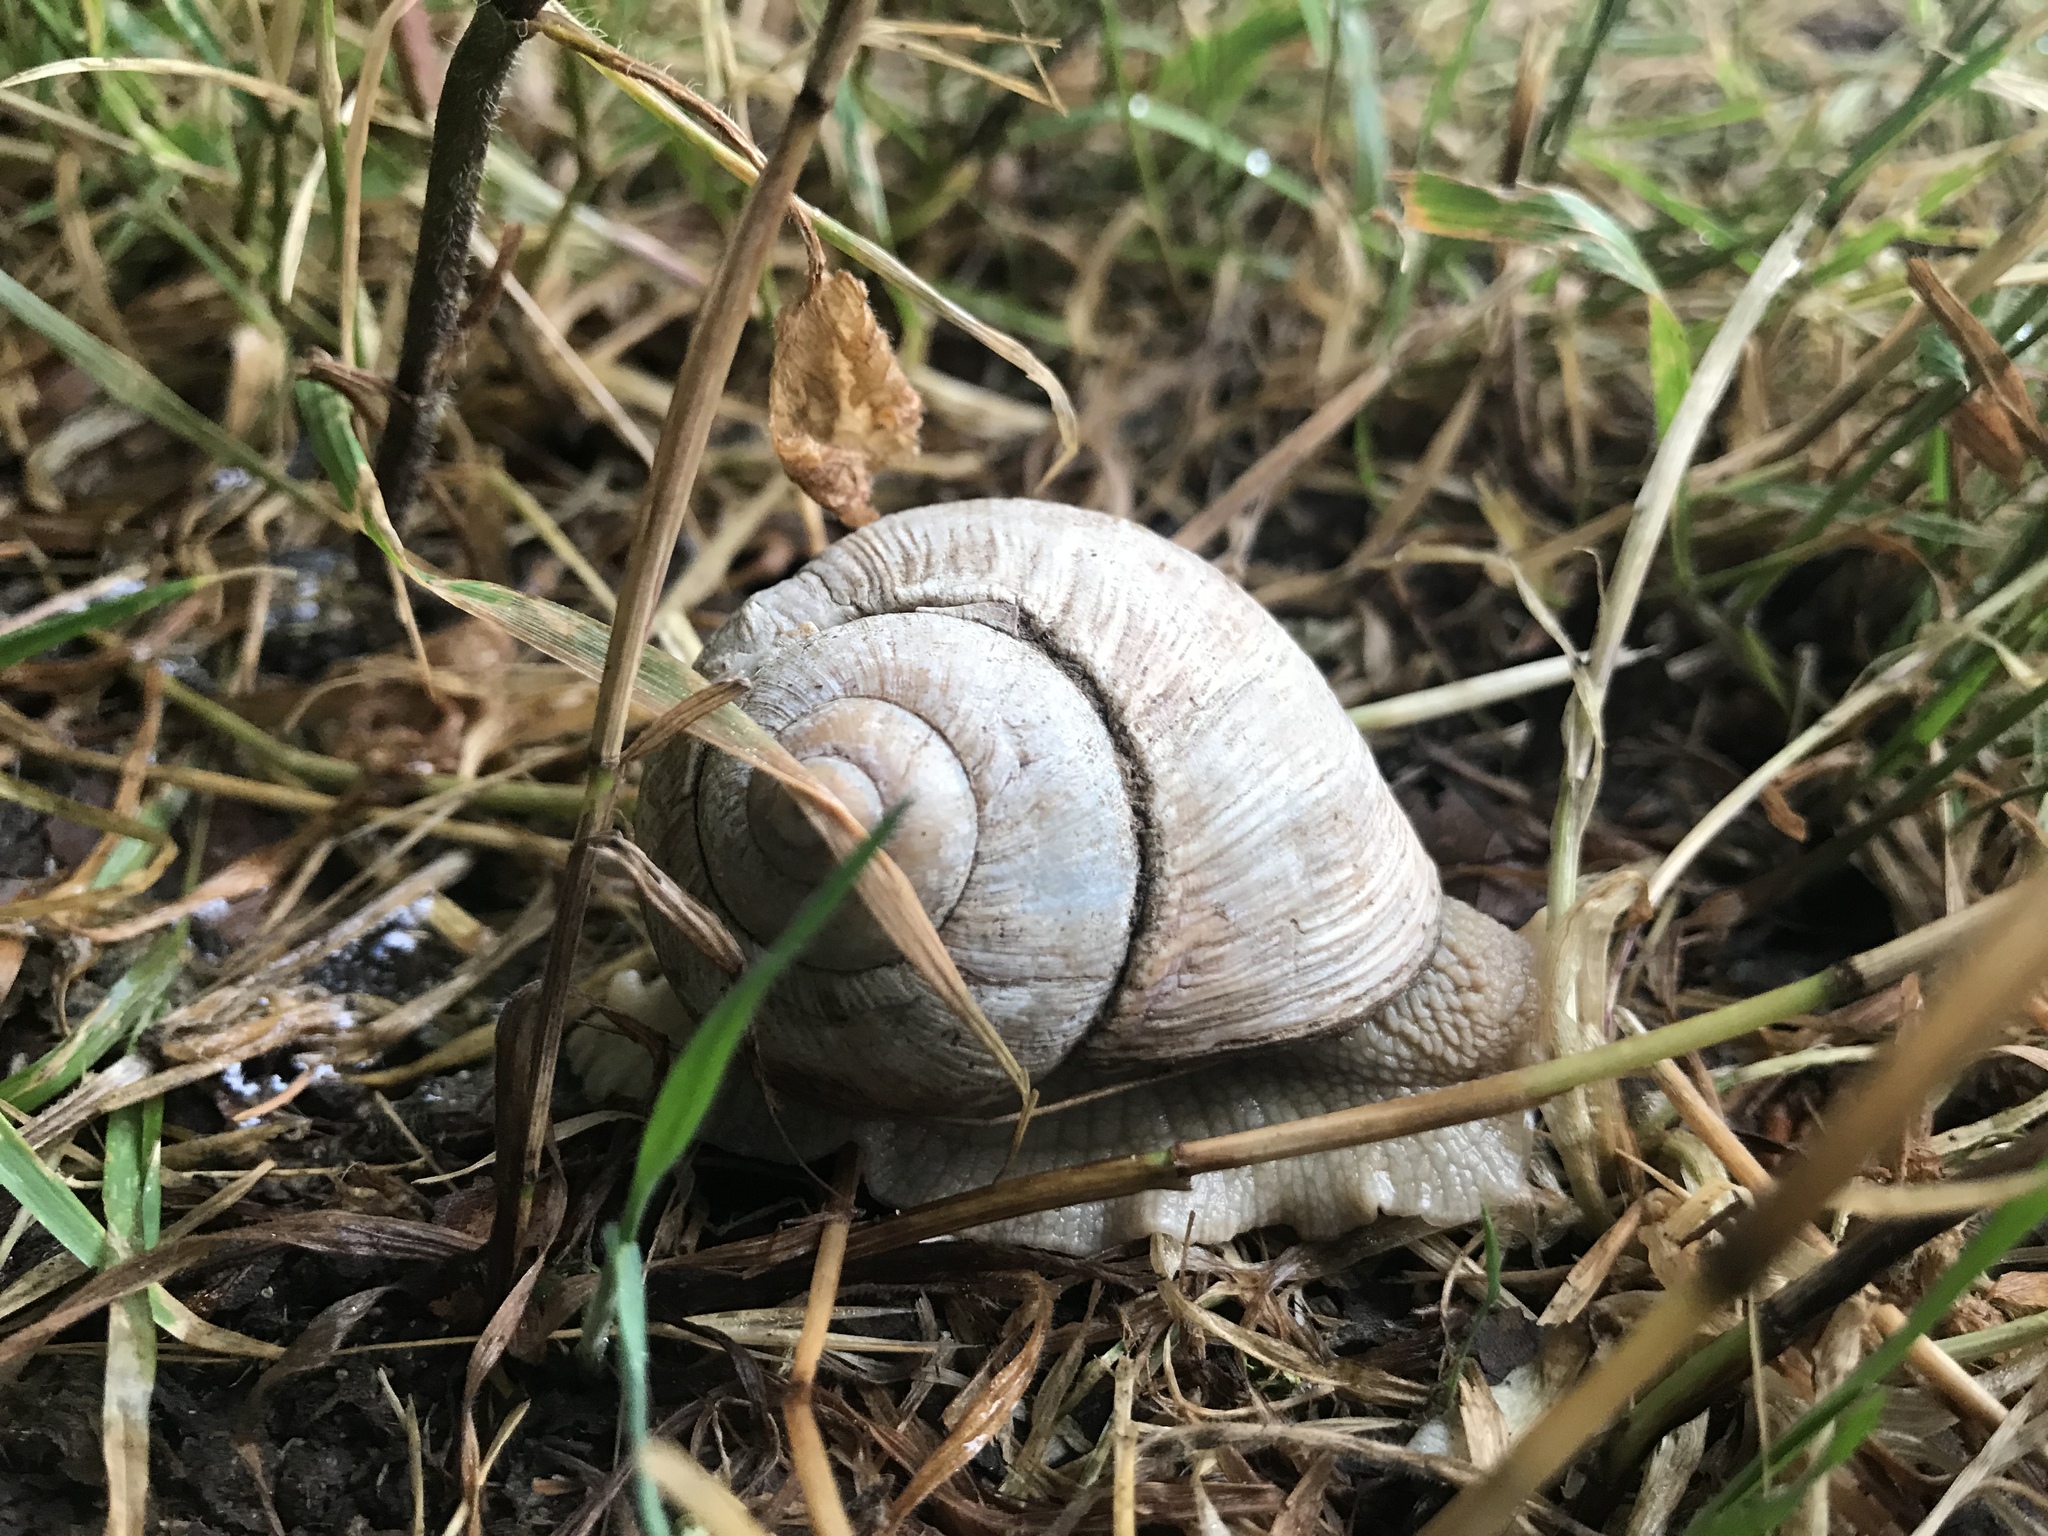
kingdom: Animalia
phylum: Mollusca
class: Gastropoda
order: Stylommatophora
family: Helicidae
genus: Helix
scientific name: Helix pomatia
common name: Roman snail
